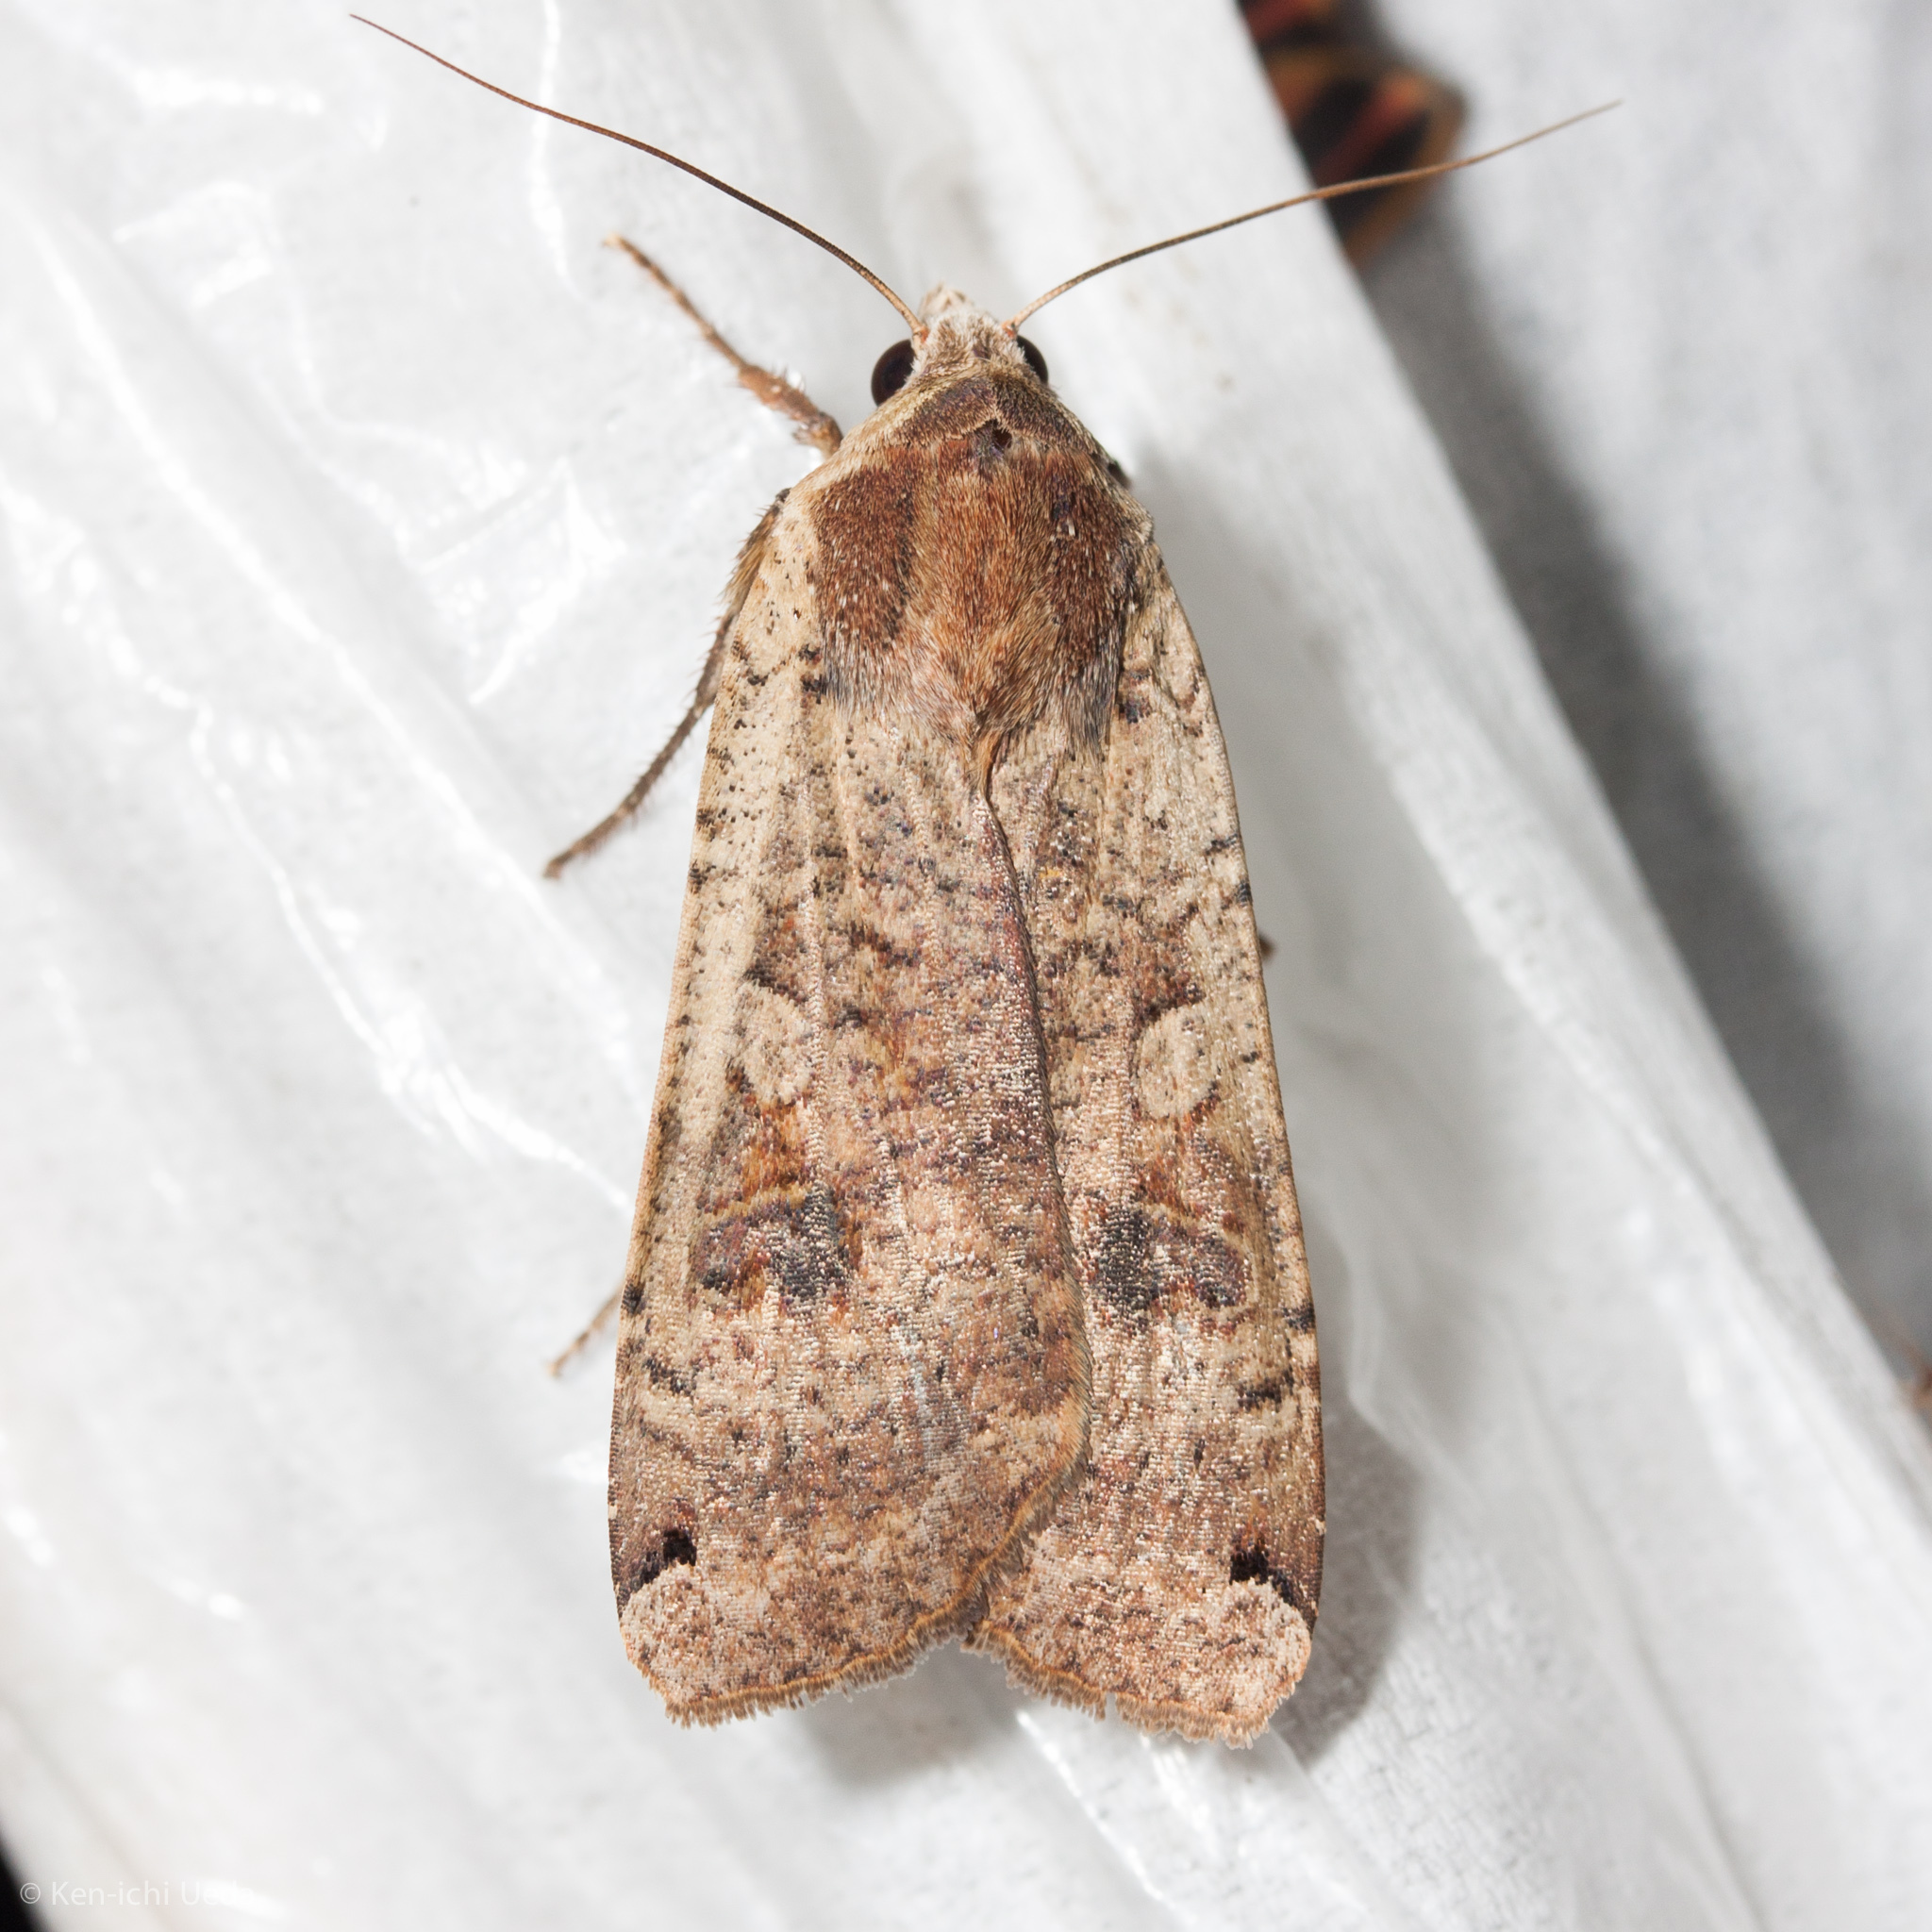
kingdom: Animalia
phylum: Arthropoda
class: Insecta
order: Lepidoptera
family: Noctuidae
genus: Noctua
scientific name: Noctua pronuba
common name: Large yellow underwing
